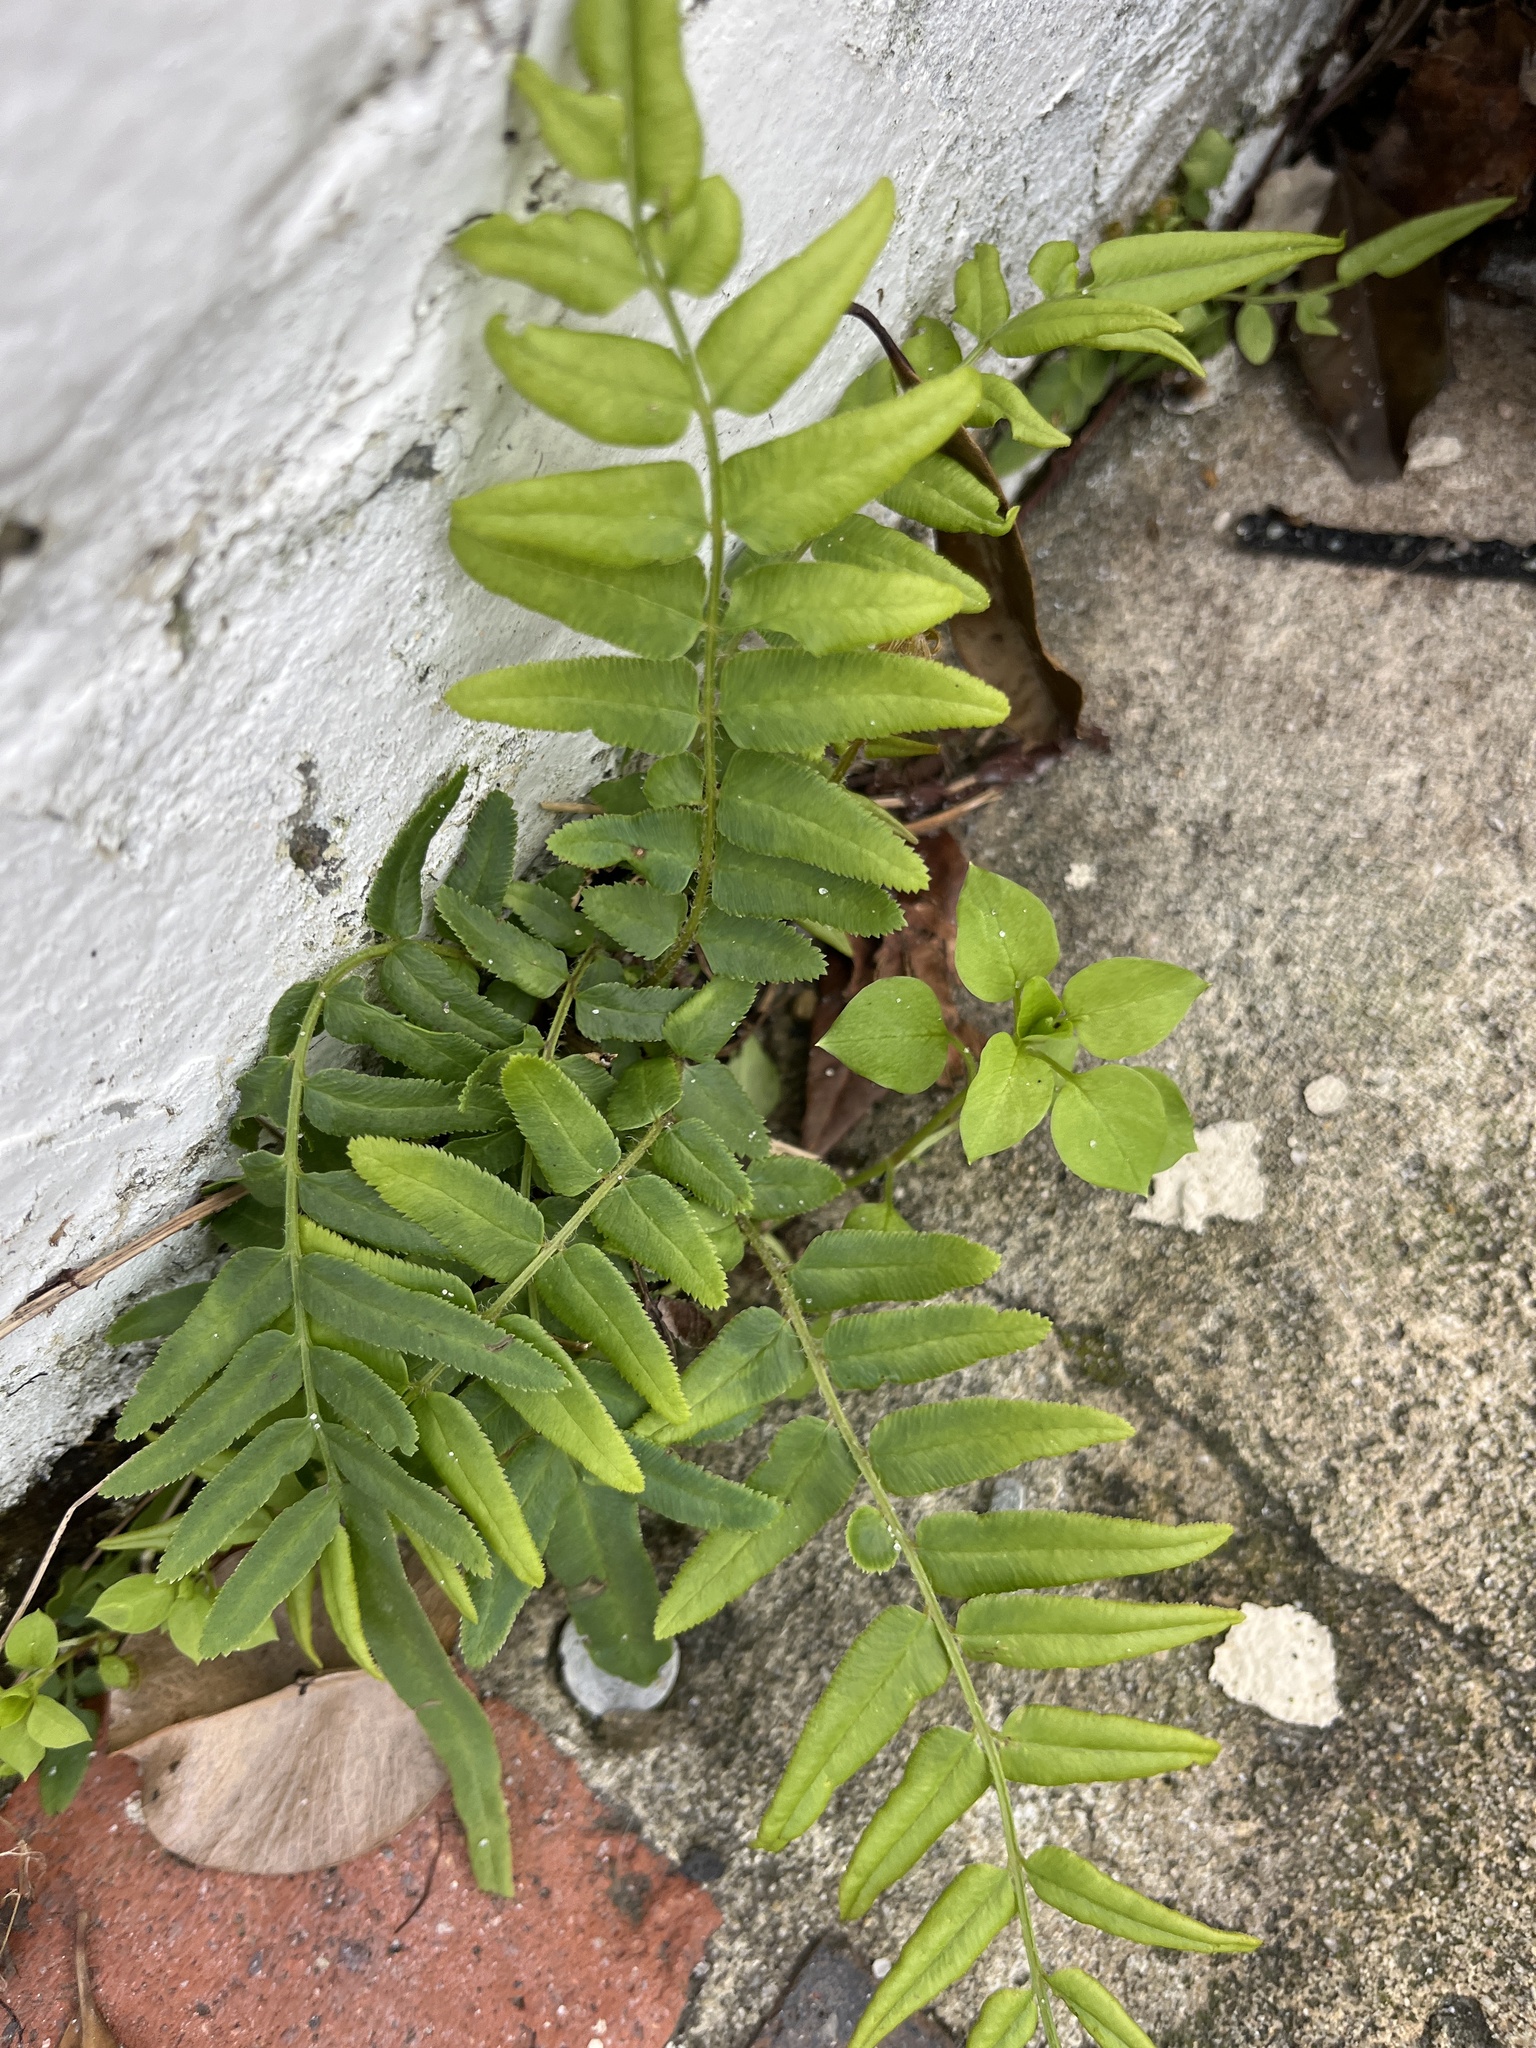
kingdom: Plantae
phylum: Tracheophyta
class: Polypodiopsida
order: Polypodiales
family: Pteridaceae
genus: Pteris
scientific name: Pteris vittata
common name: Ladder brake
